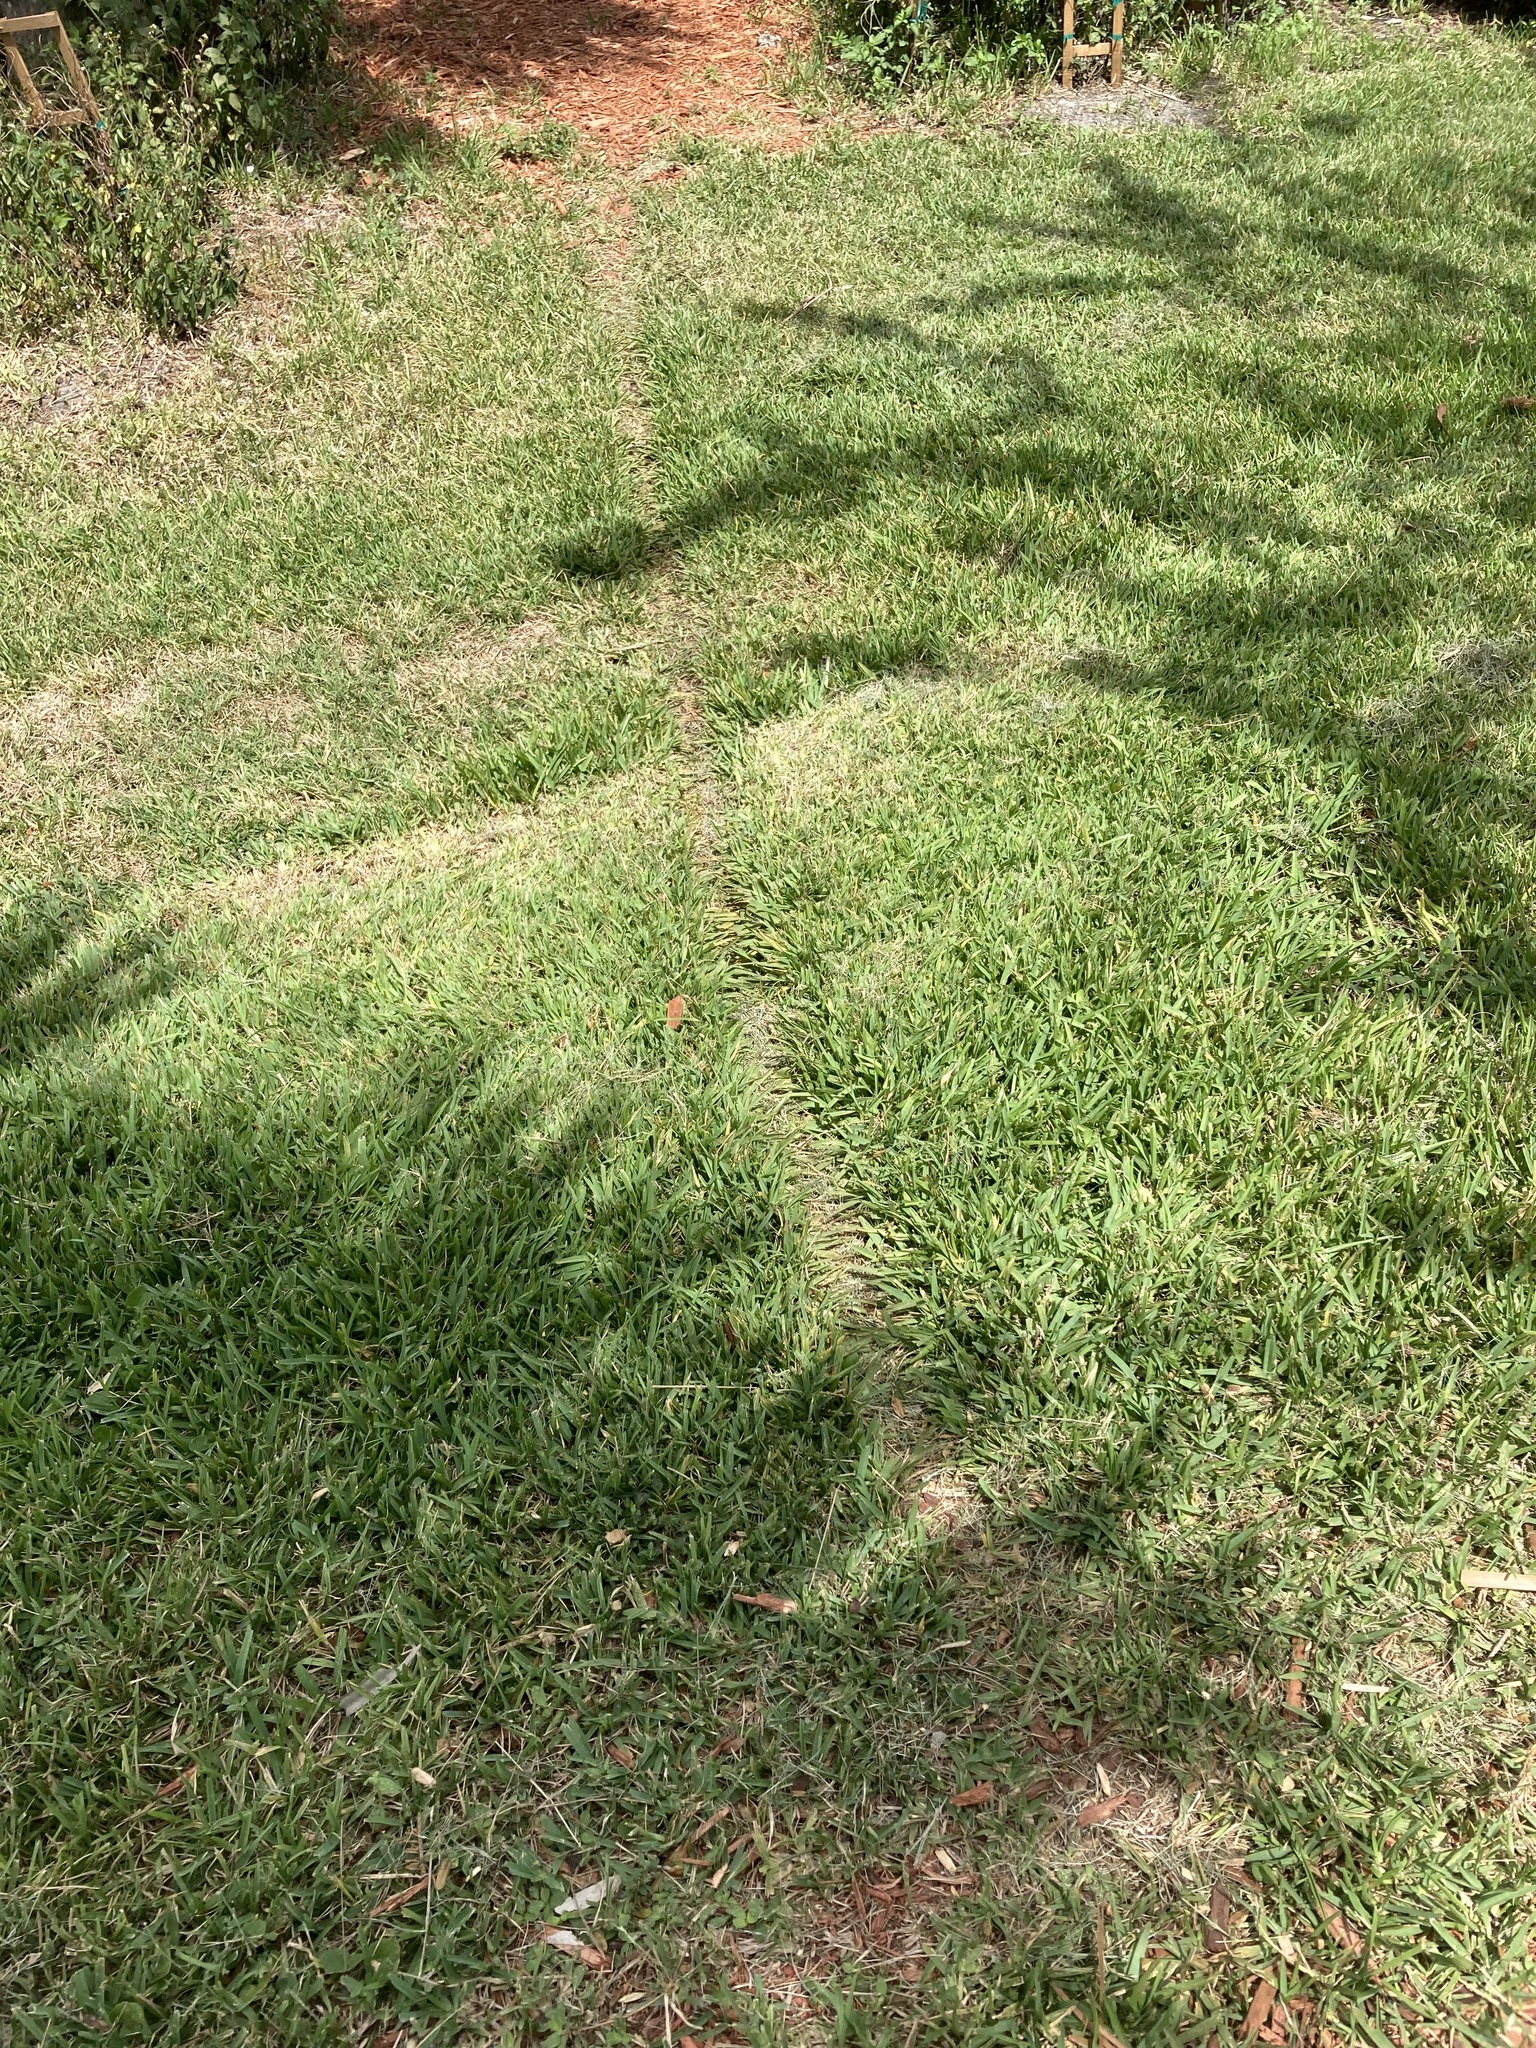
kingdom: Animalia
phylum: Chordata
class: Mammalia
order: Carnivora
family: Procyonidae
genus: Procyon
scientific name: Procyon lotor
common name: Raccoon
